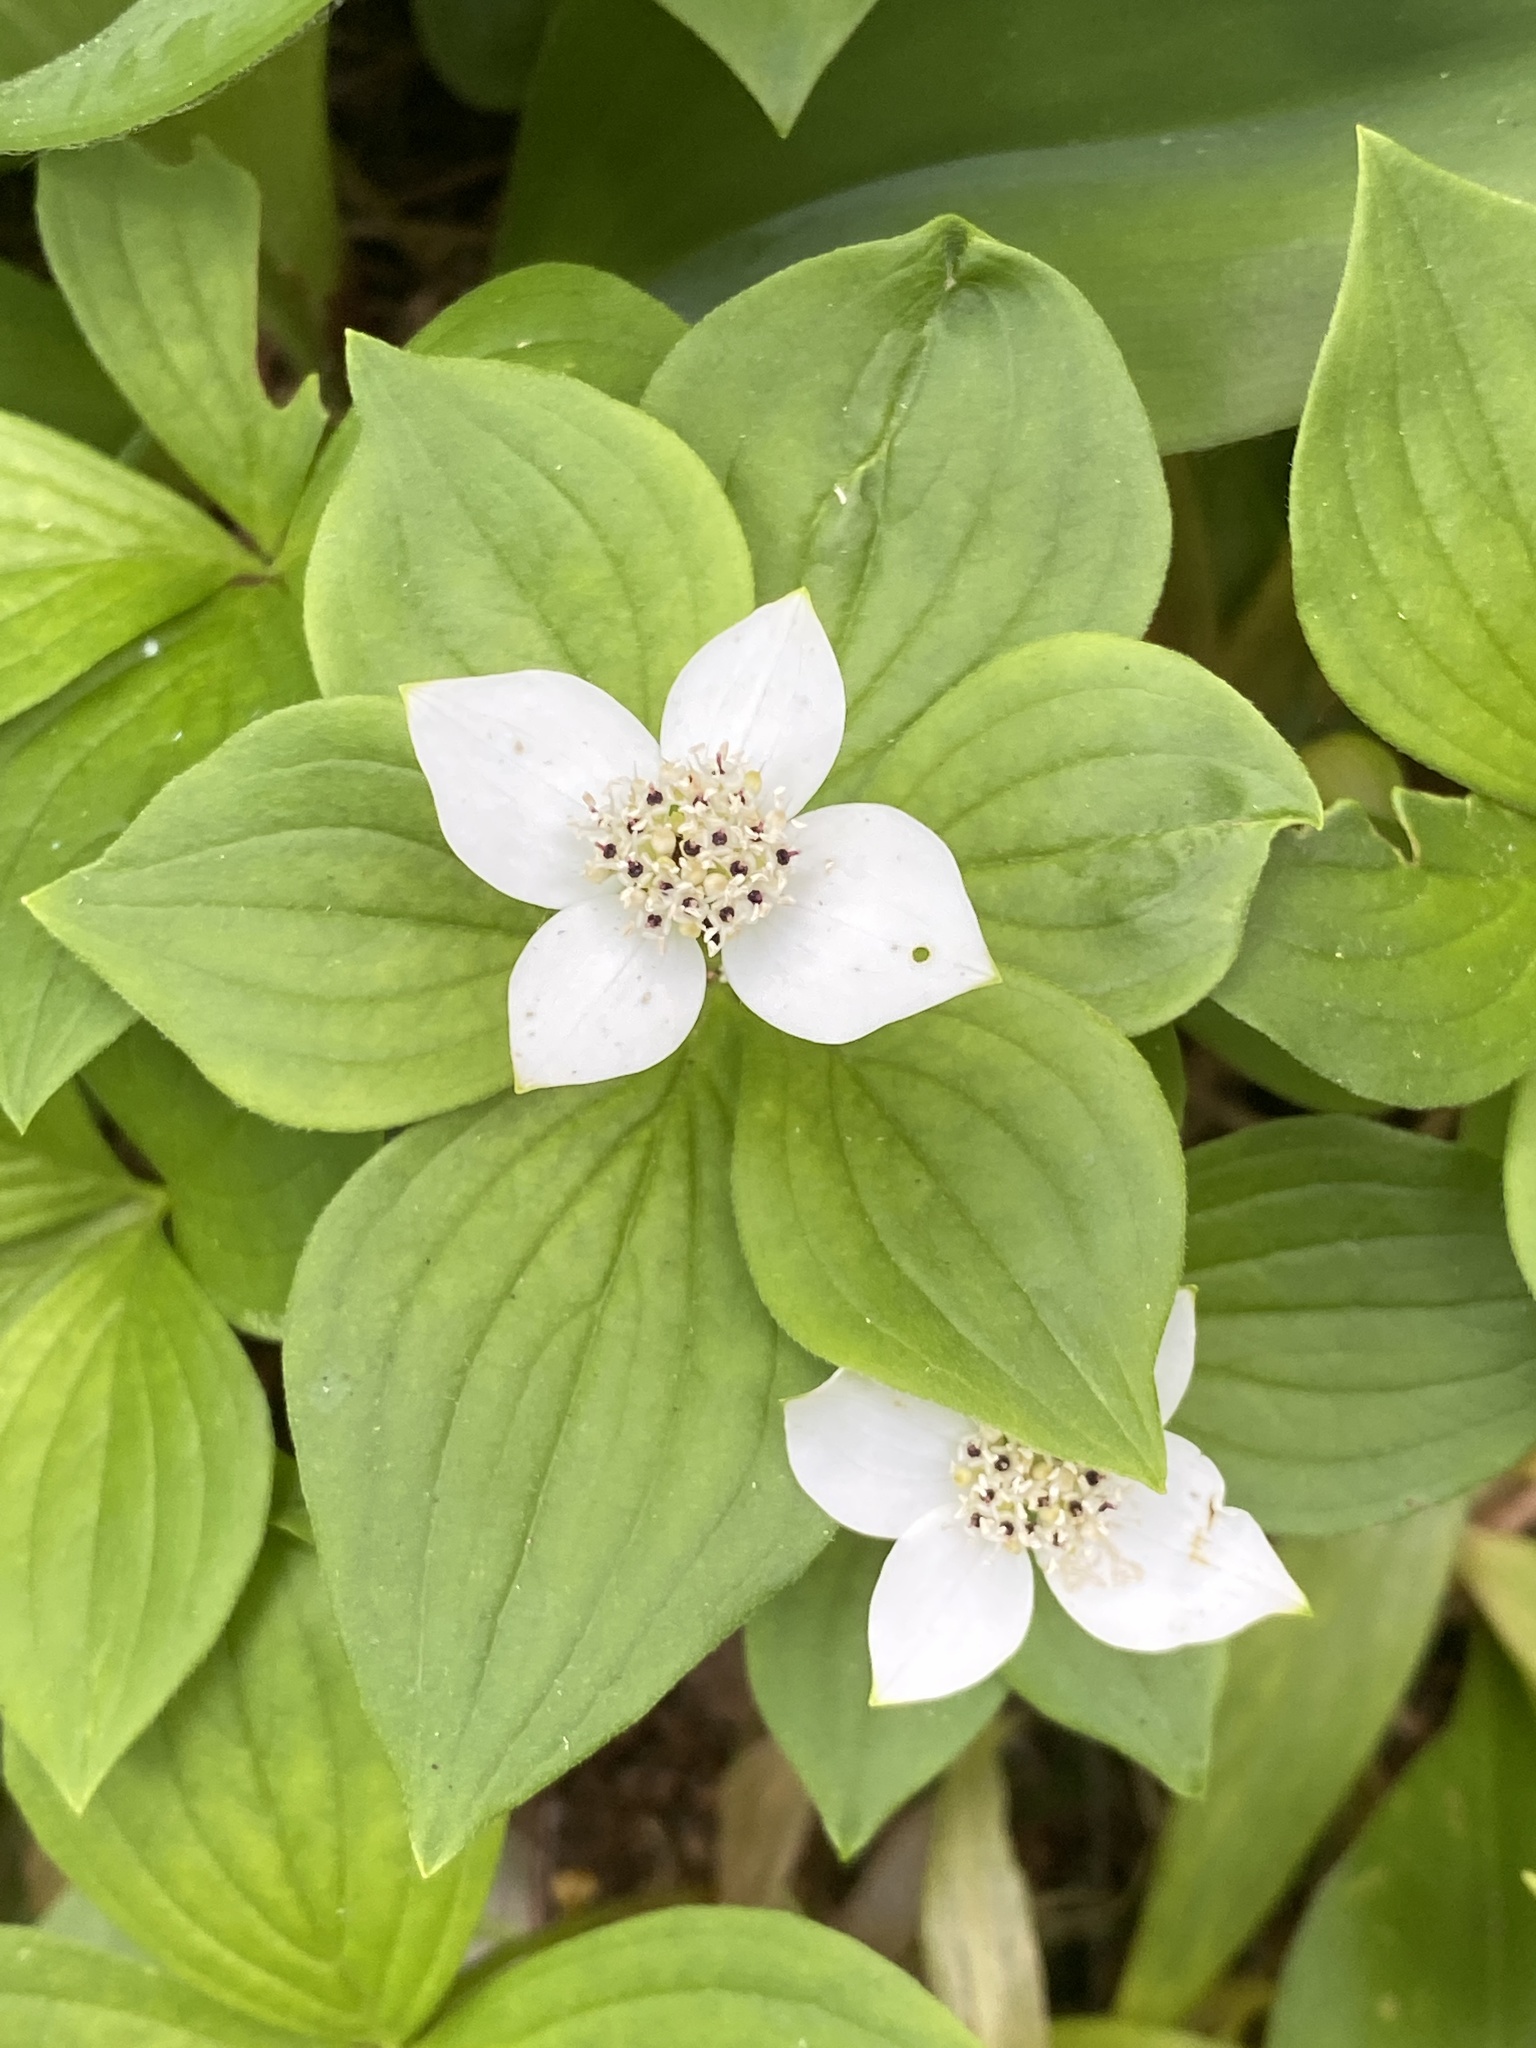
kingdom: Plantae
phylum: Tracheophyta
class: Magnoliopsida
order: Cornales
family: Cornaceae
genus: Cornus
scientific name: Cornus canadensis
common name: Creeping dogwood
